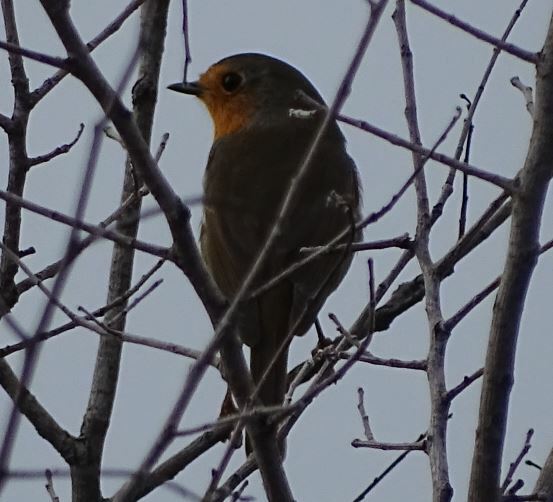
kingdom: Animalia
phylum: Chordata
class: Aves
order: Passeriformes
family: Muscicapidae
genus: Erithacus
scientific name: Erithacus rubecula
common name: European robin
